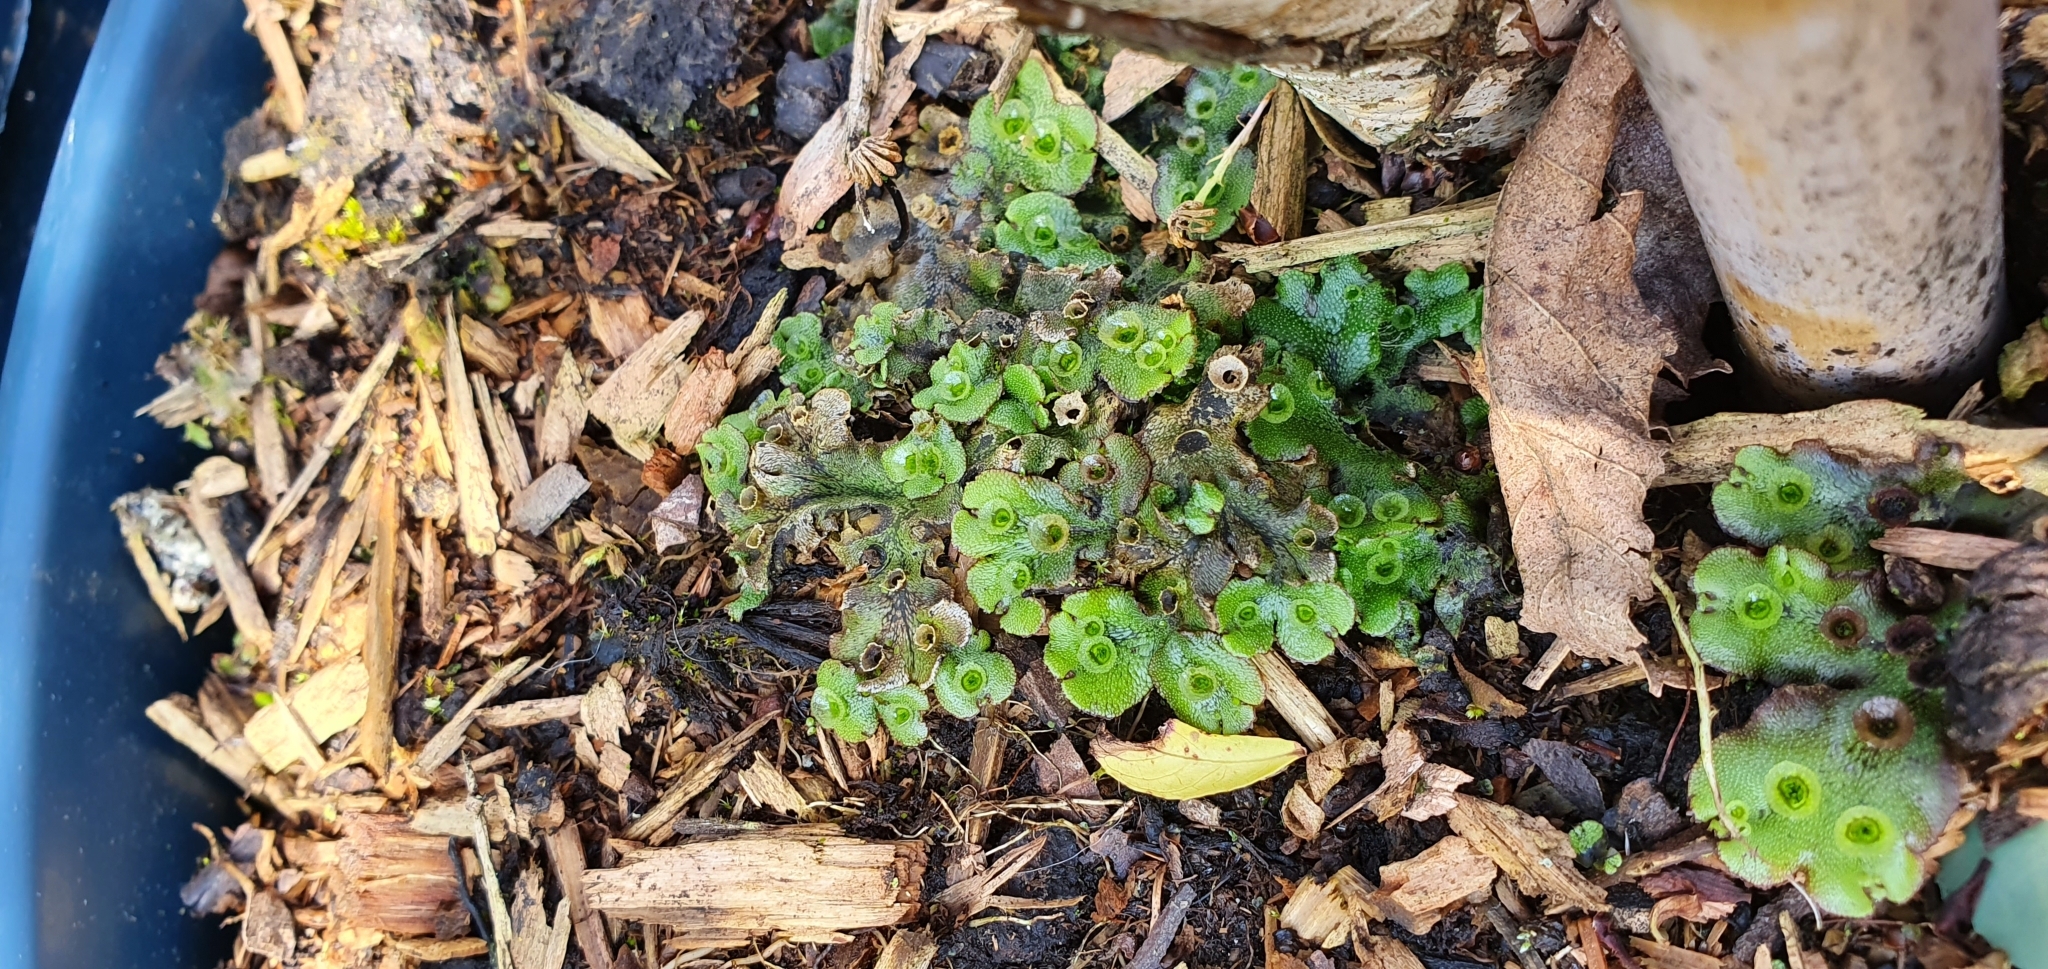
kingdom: Plantae
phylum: Marchantiophyta
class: Marchantiopsida
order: Marchantiales
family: Marchantiaceae
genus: Marchantia
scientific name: Marchantia polymorpha
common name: Common liverwort
